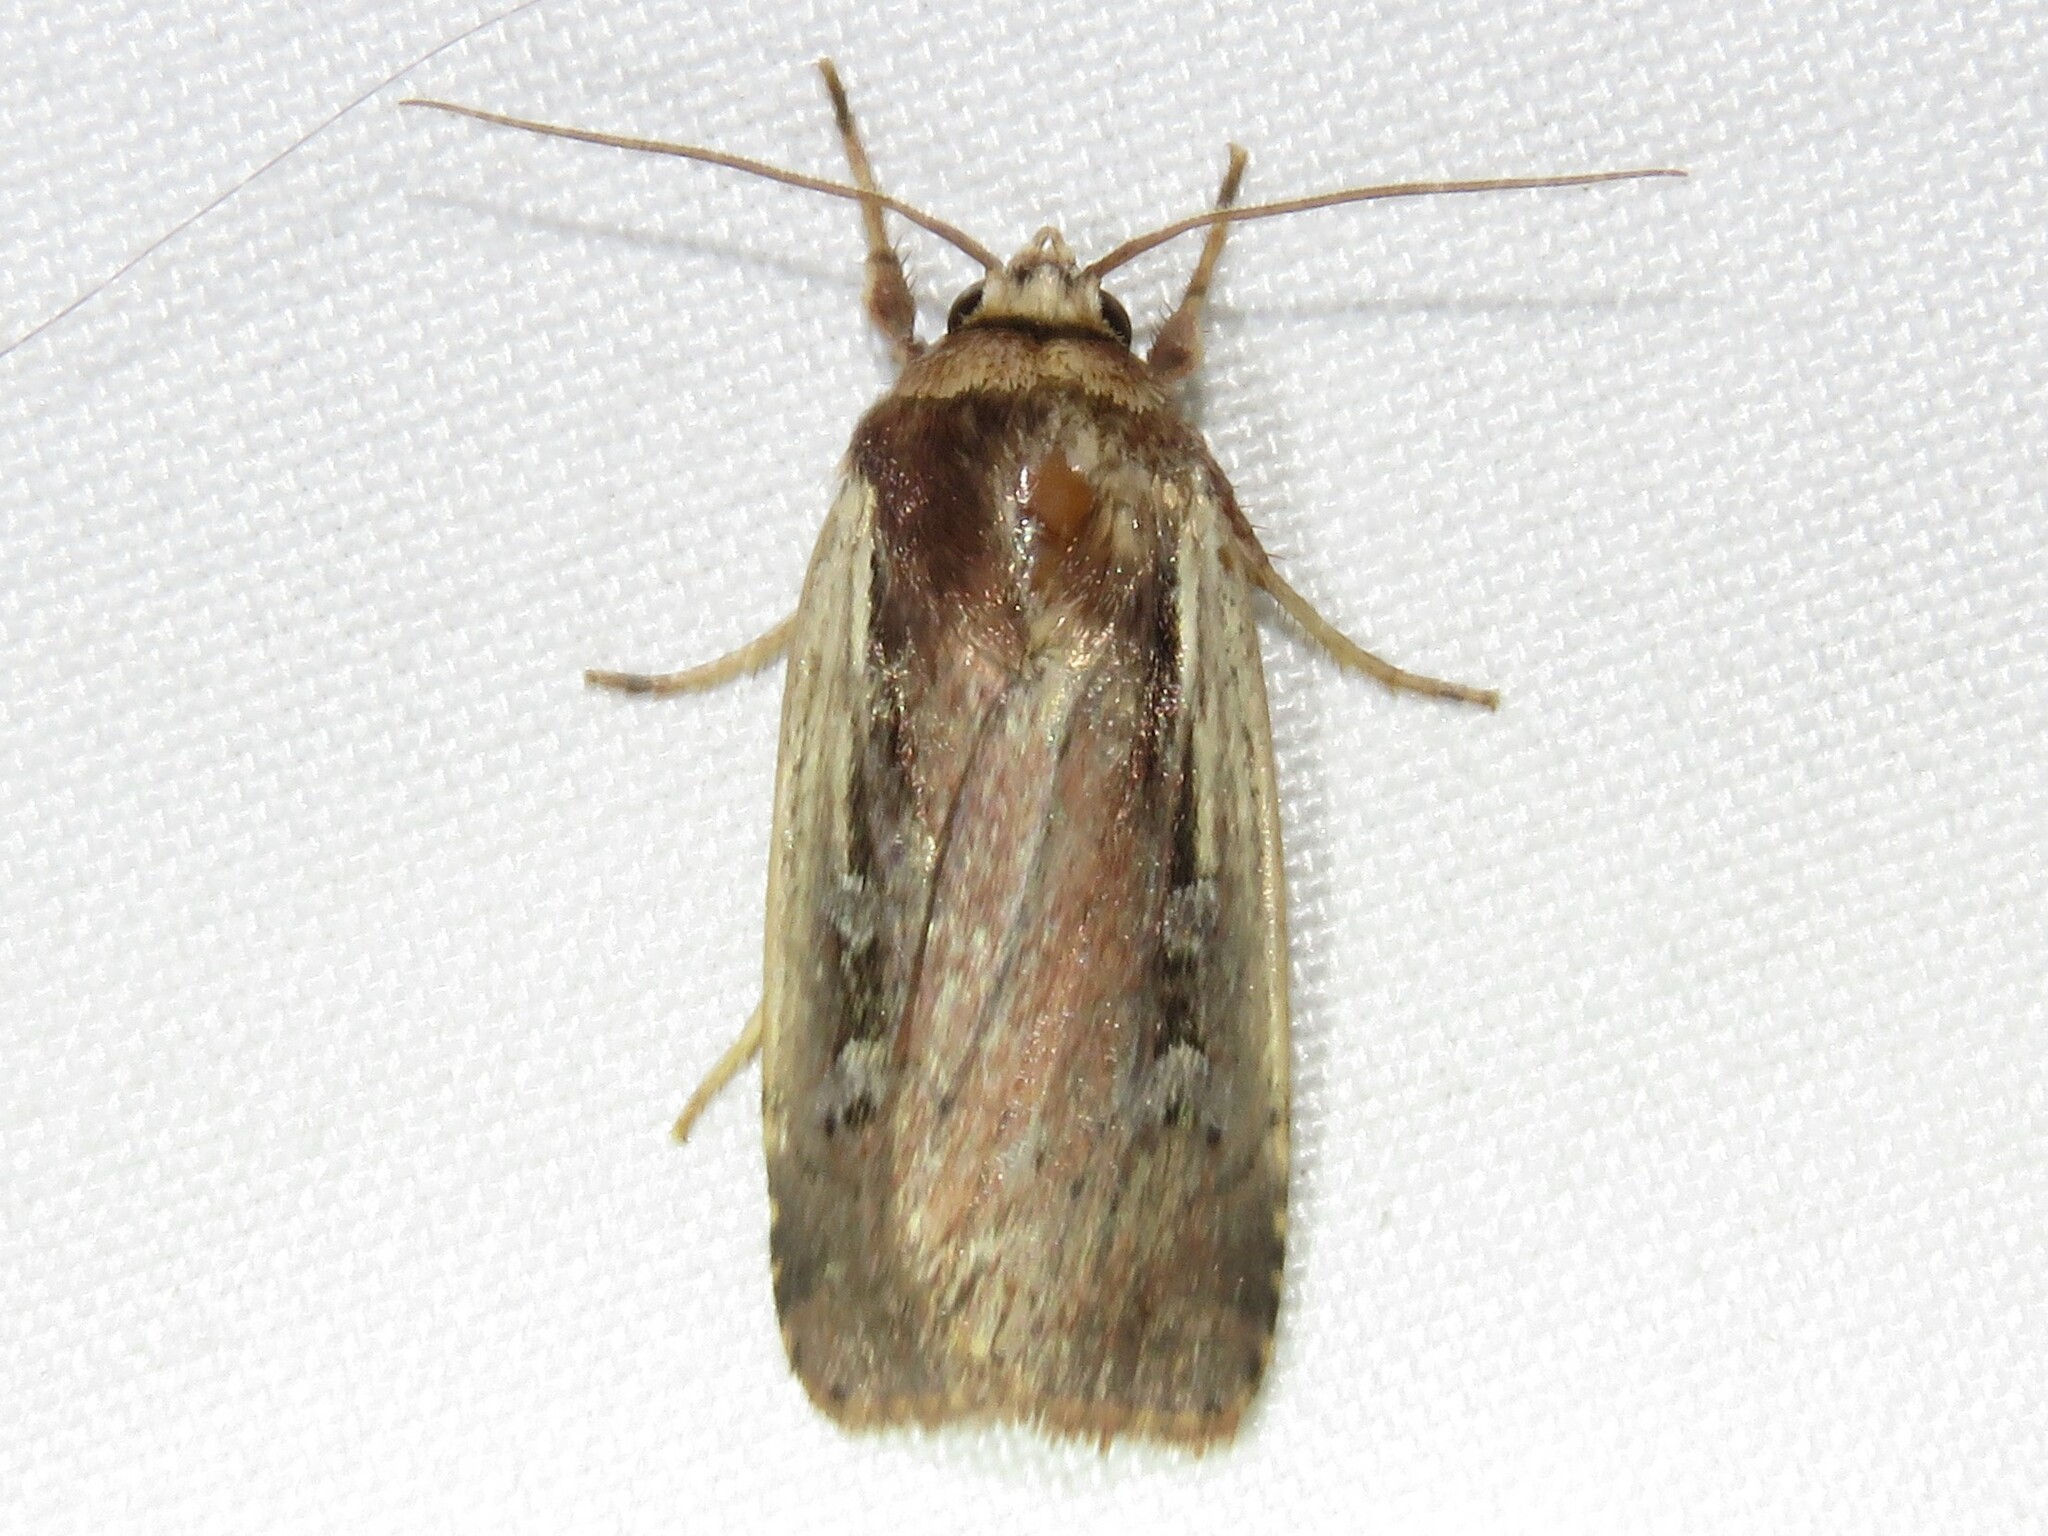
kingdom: Animalia
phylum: Arthropoda
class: Insecta
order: Lepidoptera
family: Noctuidae
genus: Ochropleura
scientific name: Ochropleura implecta
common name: Flame-shouldered dart
